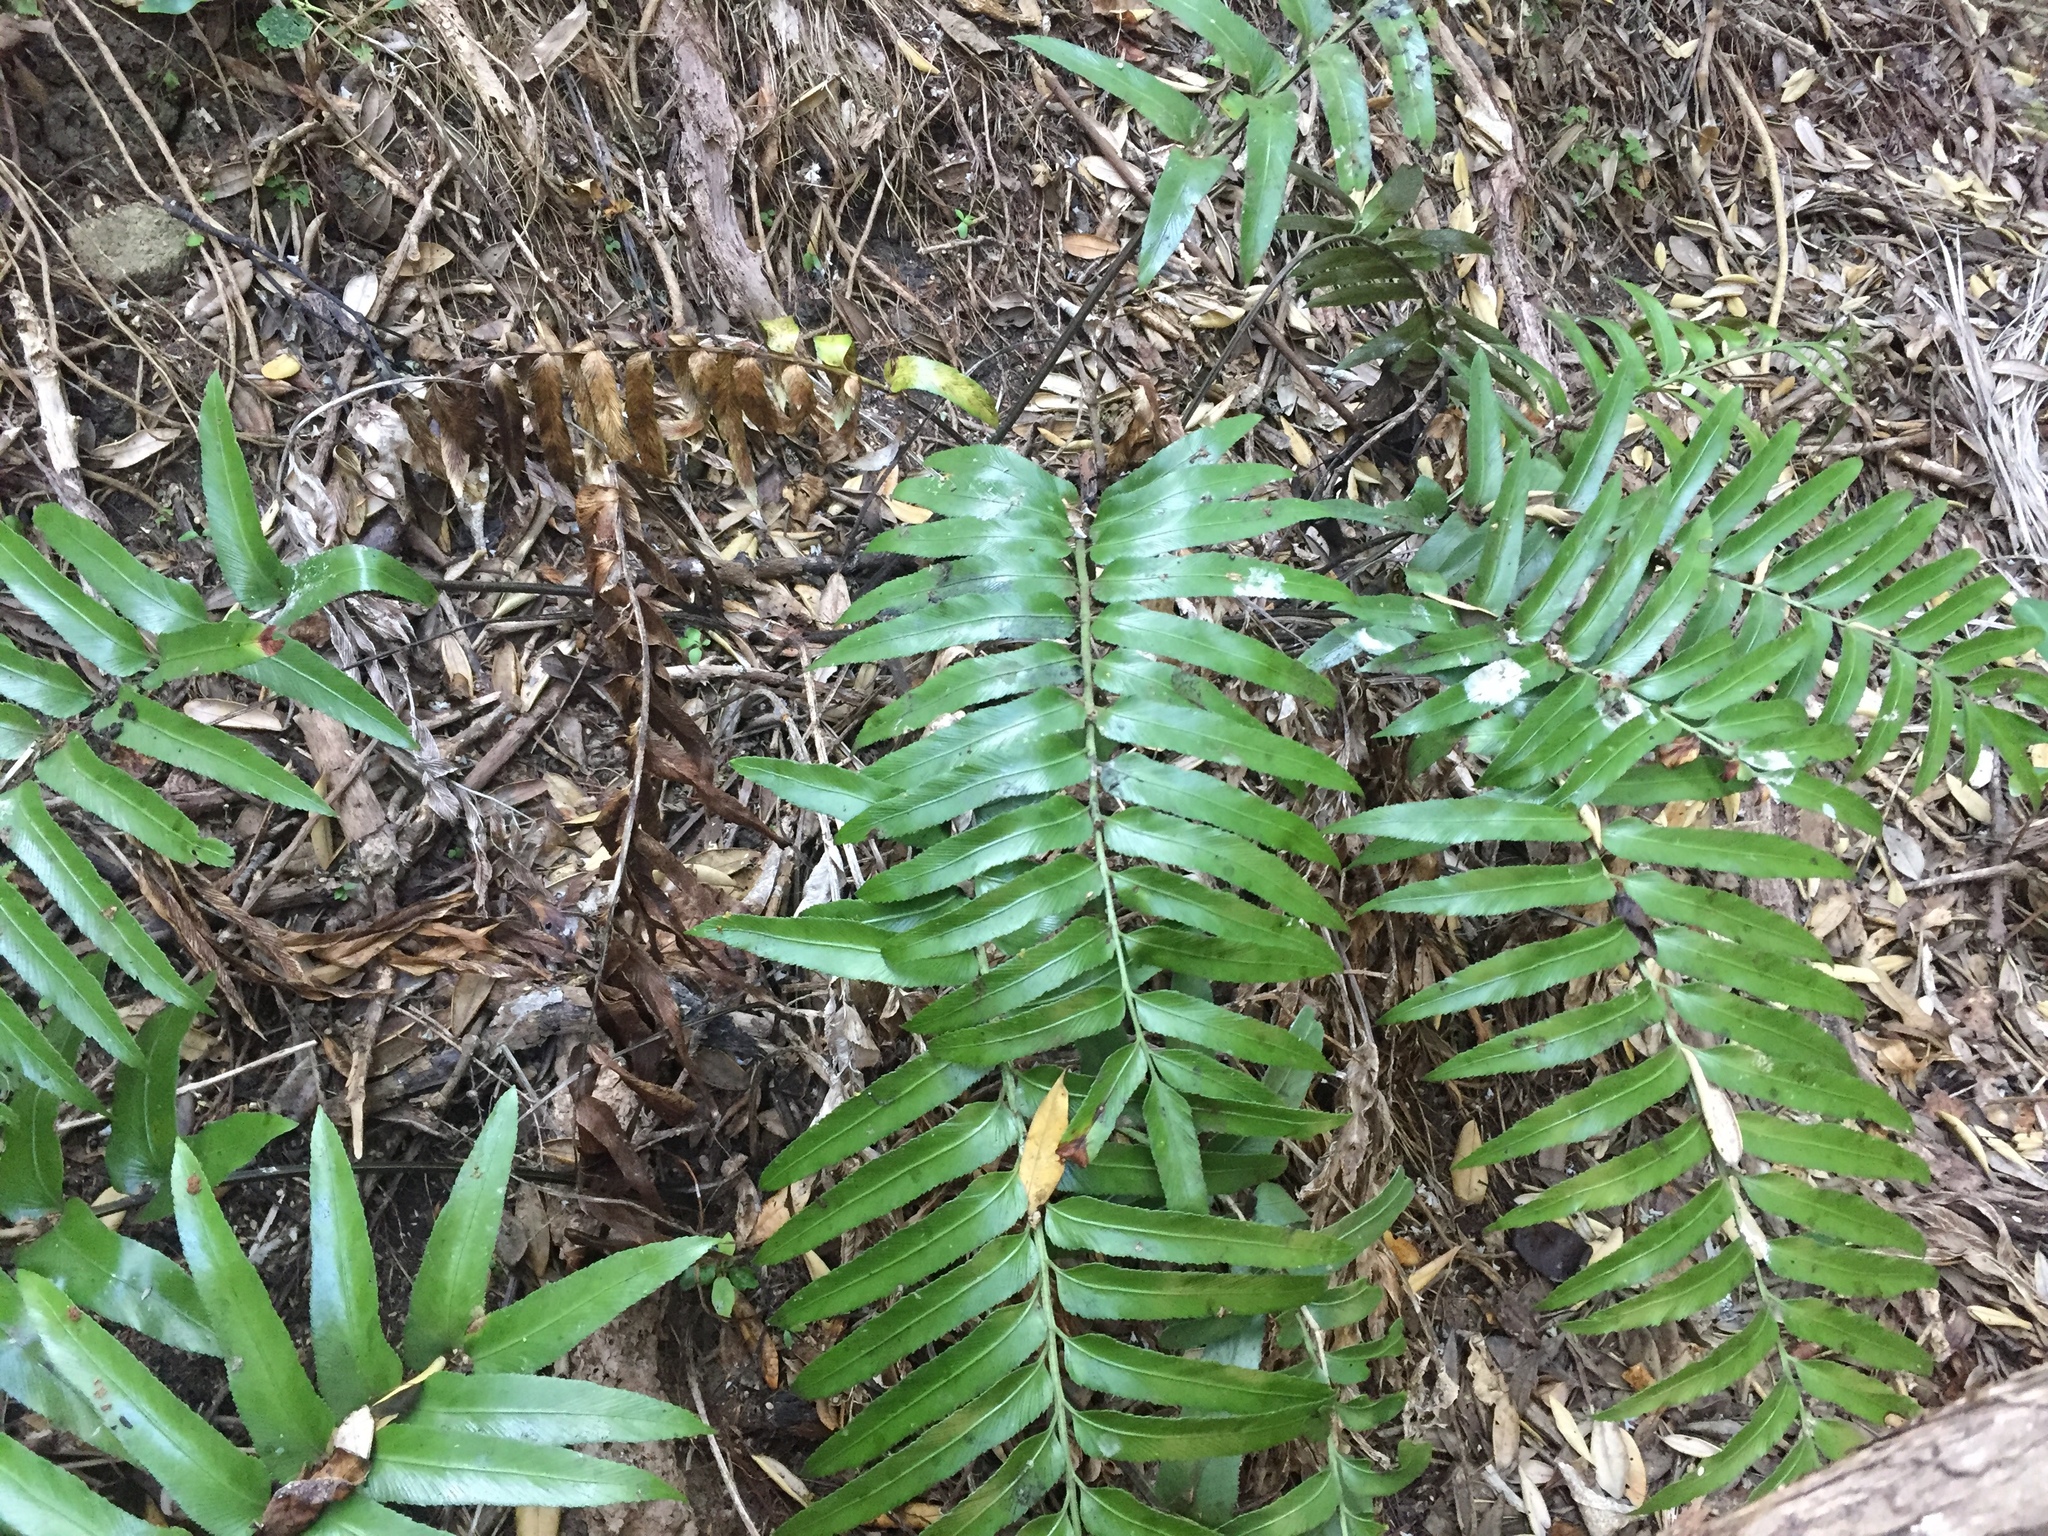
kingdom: Plantae
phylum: Tracheophyta
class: Polypodiopsida
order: Polypodiales
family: Aspleniaceae
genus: Asplenium
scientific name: Asplenium oblongifolium
